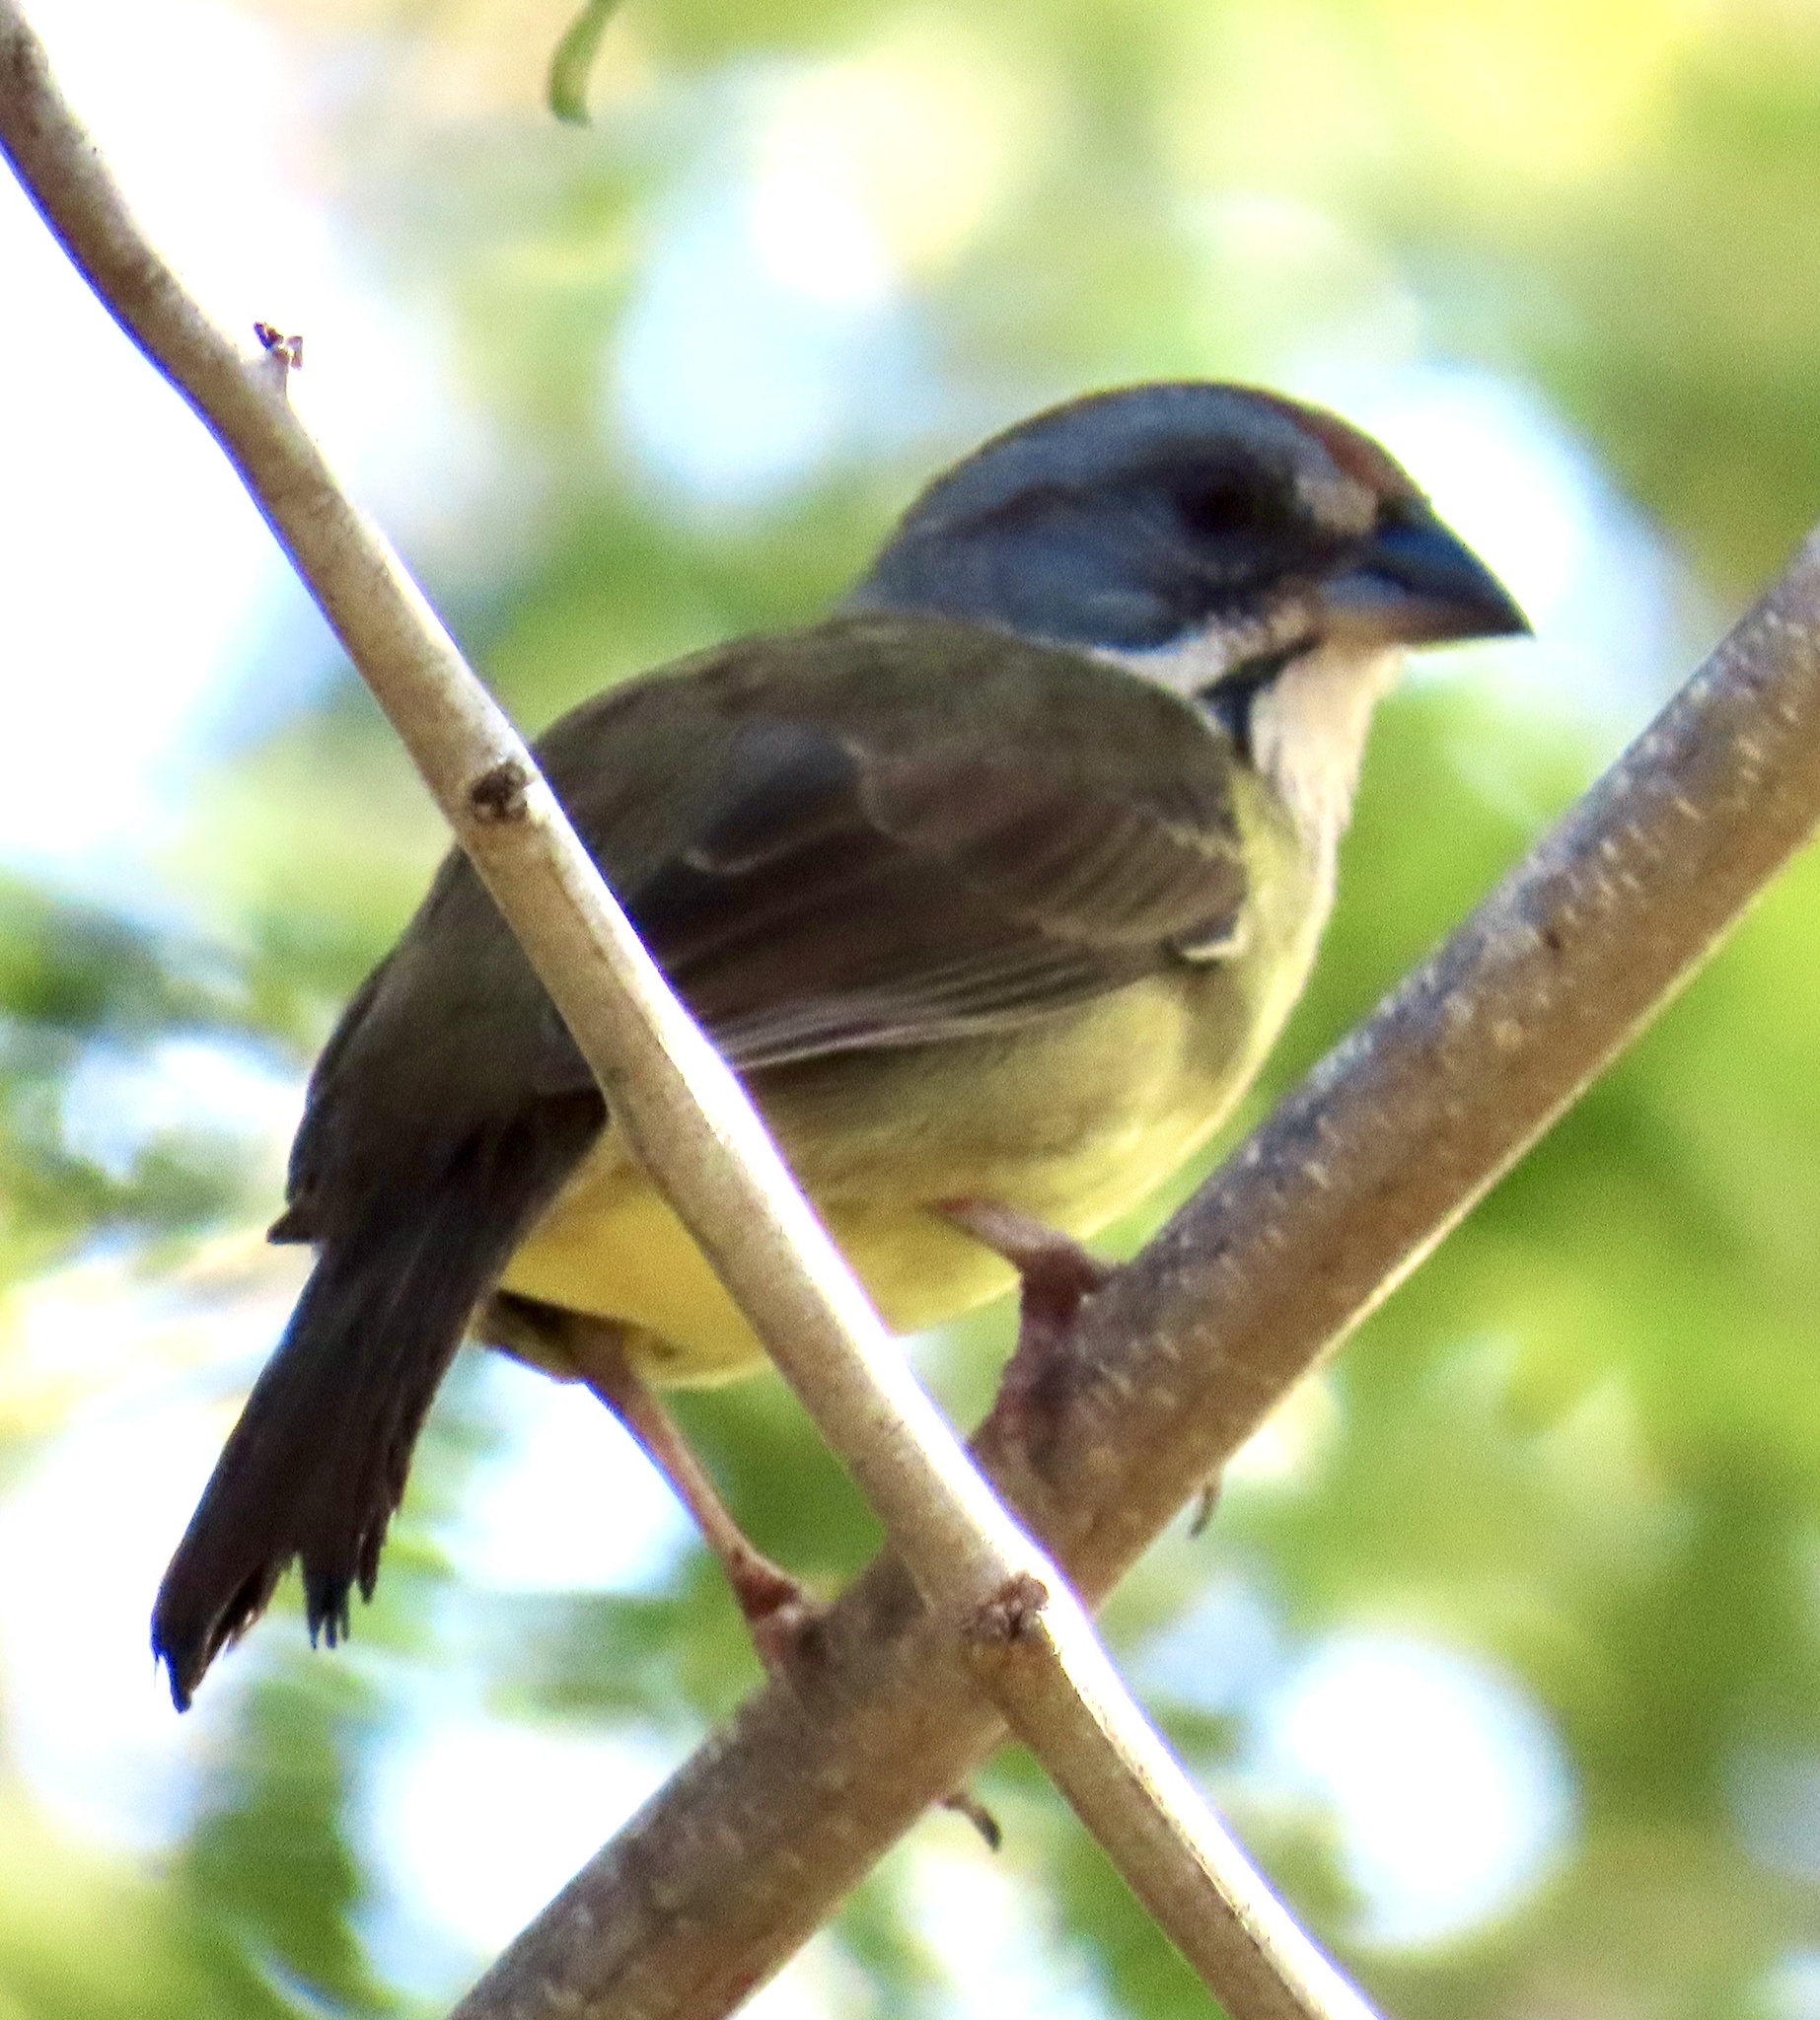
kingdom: Animalia
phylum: Chordata
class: Aves
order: Passeriformes
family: Passerellidae
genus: Torreornis
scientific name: Torreornis inexpectata
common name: Zapata sparrow
